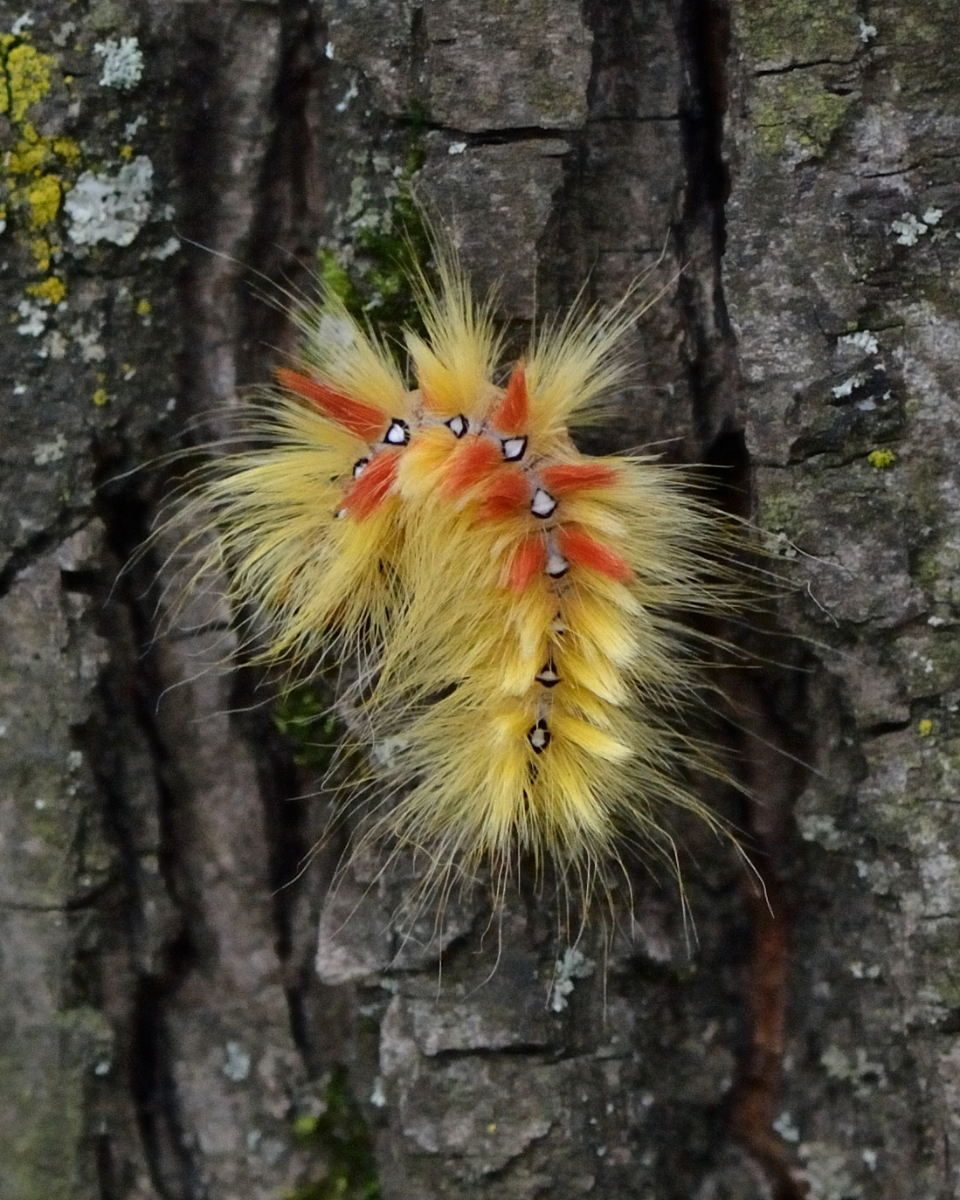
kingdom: Animalia
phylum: Arthropoda
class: Insecta
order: Lepidoptera
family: Noctuidae
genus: Acronicta
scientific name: Acronicta aceris
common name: Sycamore
